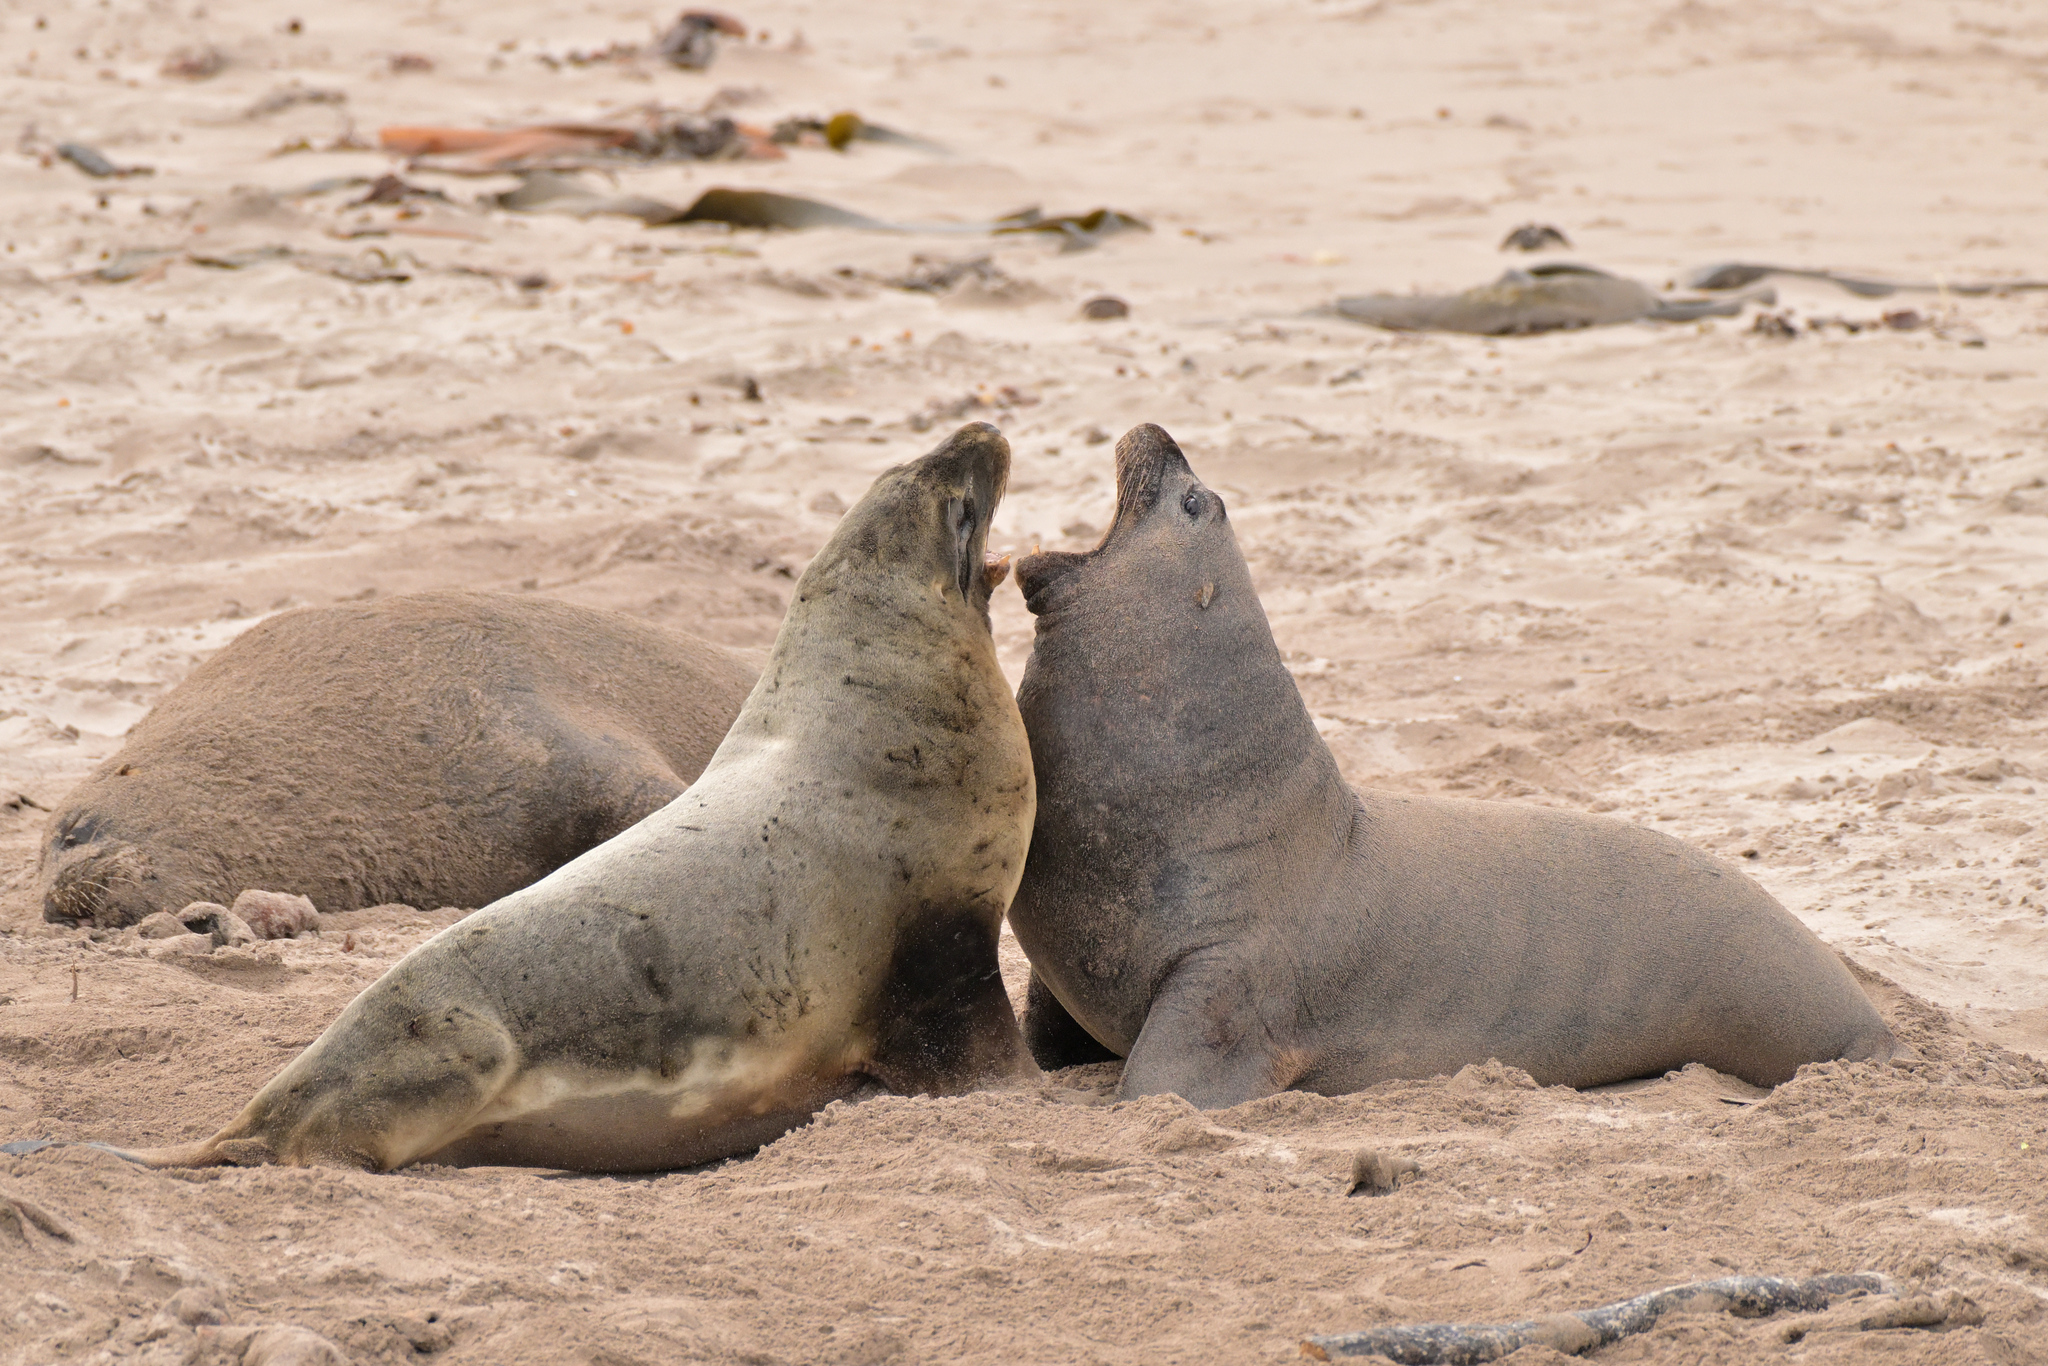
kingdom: Animalia
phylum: Chordata
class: Mammalia
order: Carnivora
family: Otariidae
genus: Phocarctos
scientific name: Phocarctos hookeri
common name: New zealand sea lion
